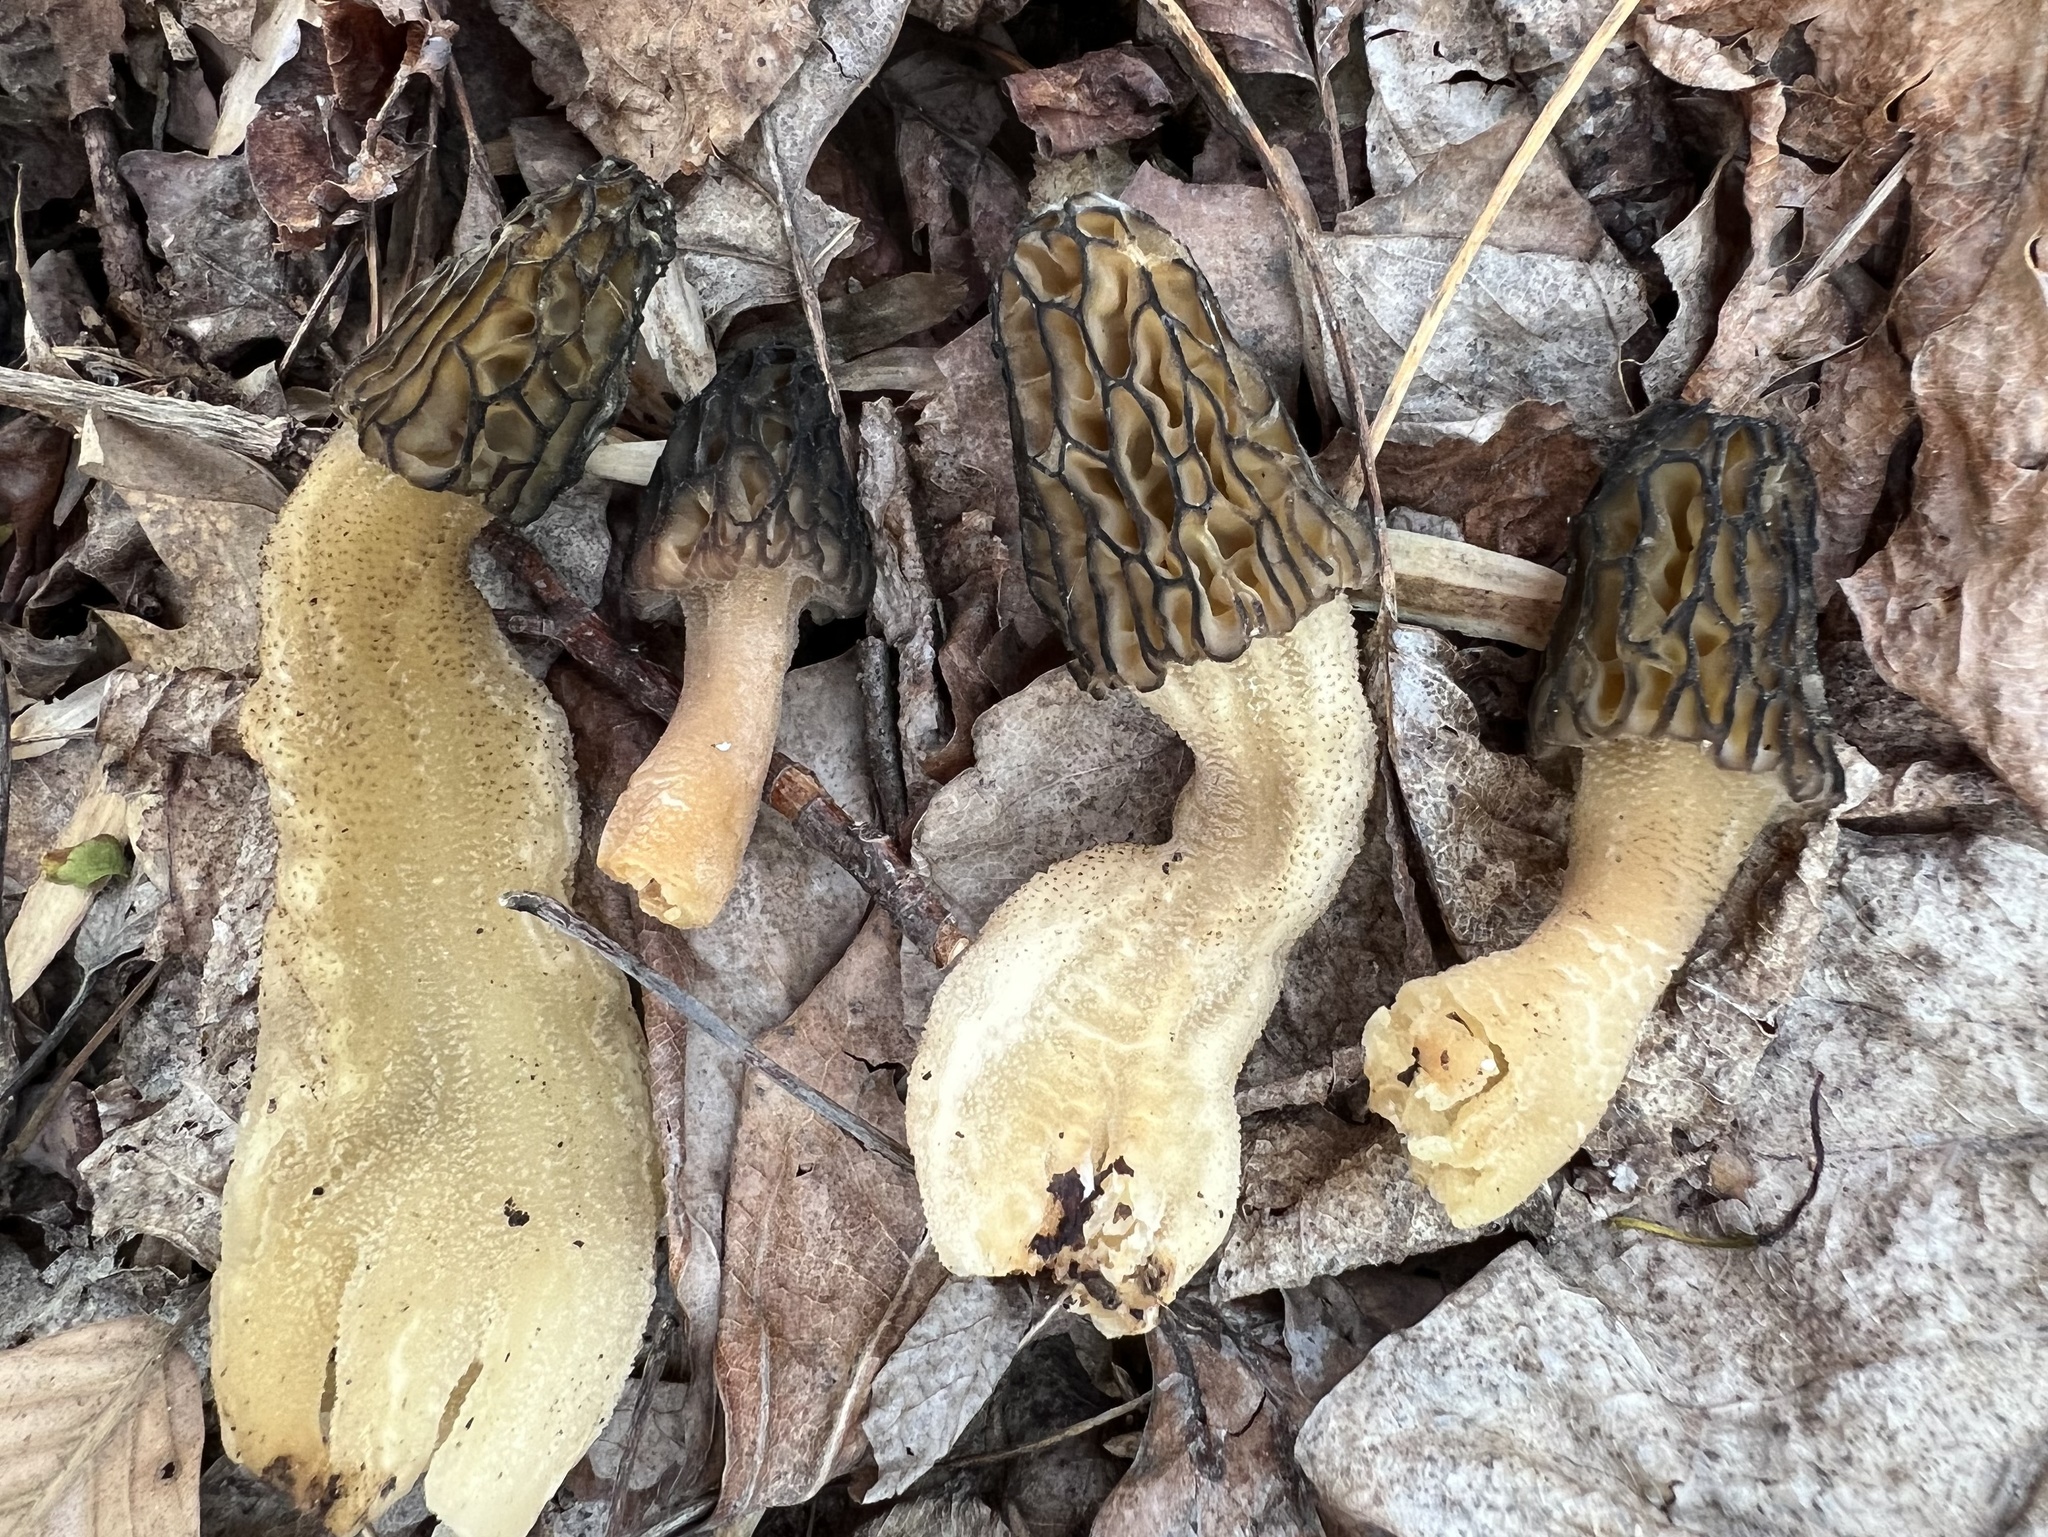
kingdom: Fungi
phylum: Ascomycota
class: Pezizomycetes
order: Pezizales
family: Morchellaceae
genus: Morchella
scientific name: Morchella angusticeps
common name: Black morel
